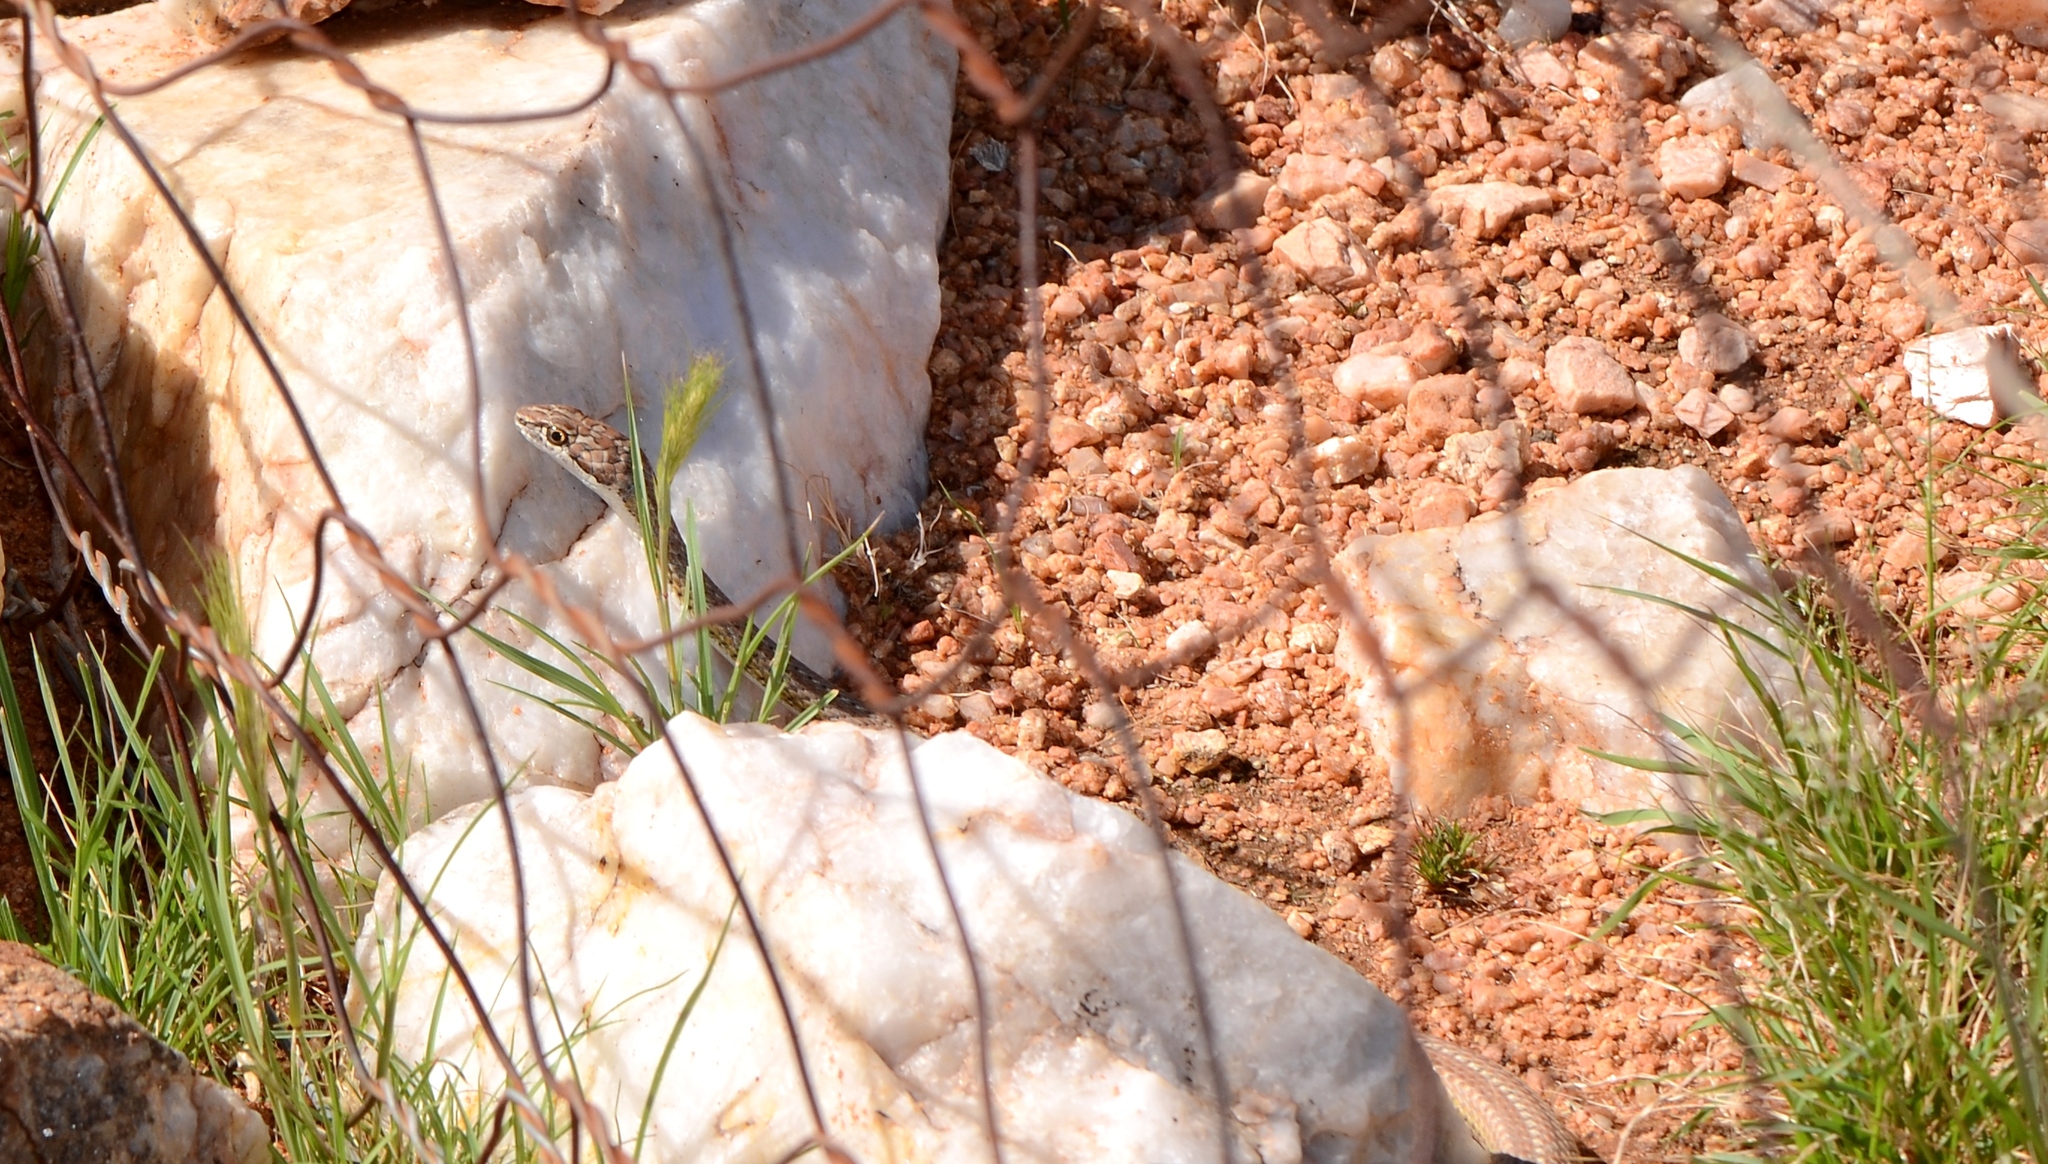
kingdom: Animalia
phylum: Chordata
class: Squamata
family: Psammophiidae
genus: Psammophis
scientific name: Psammophis notostictus
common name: Karoo sand snake
